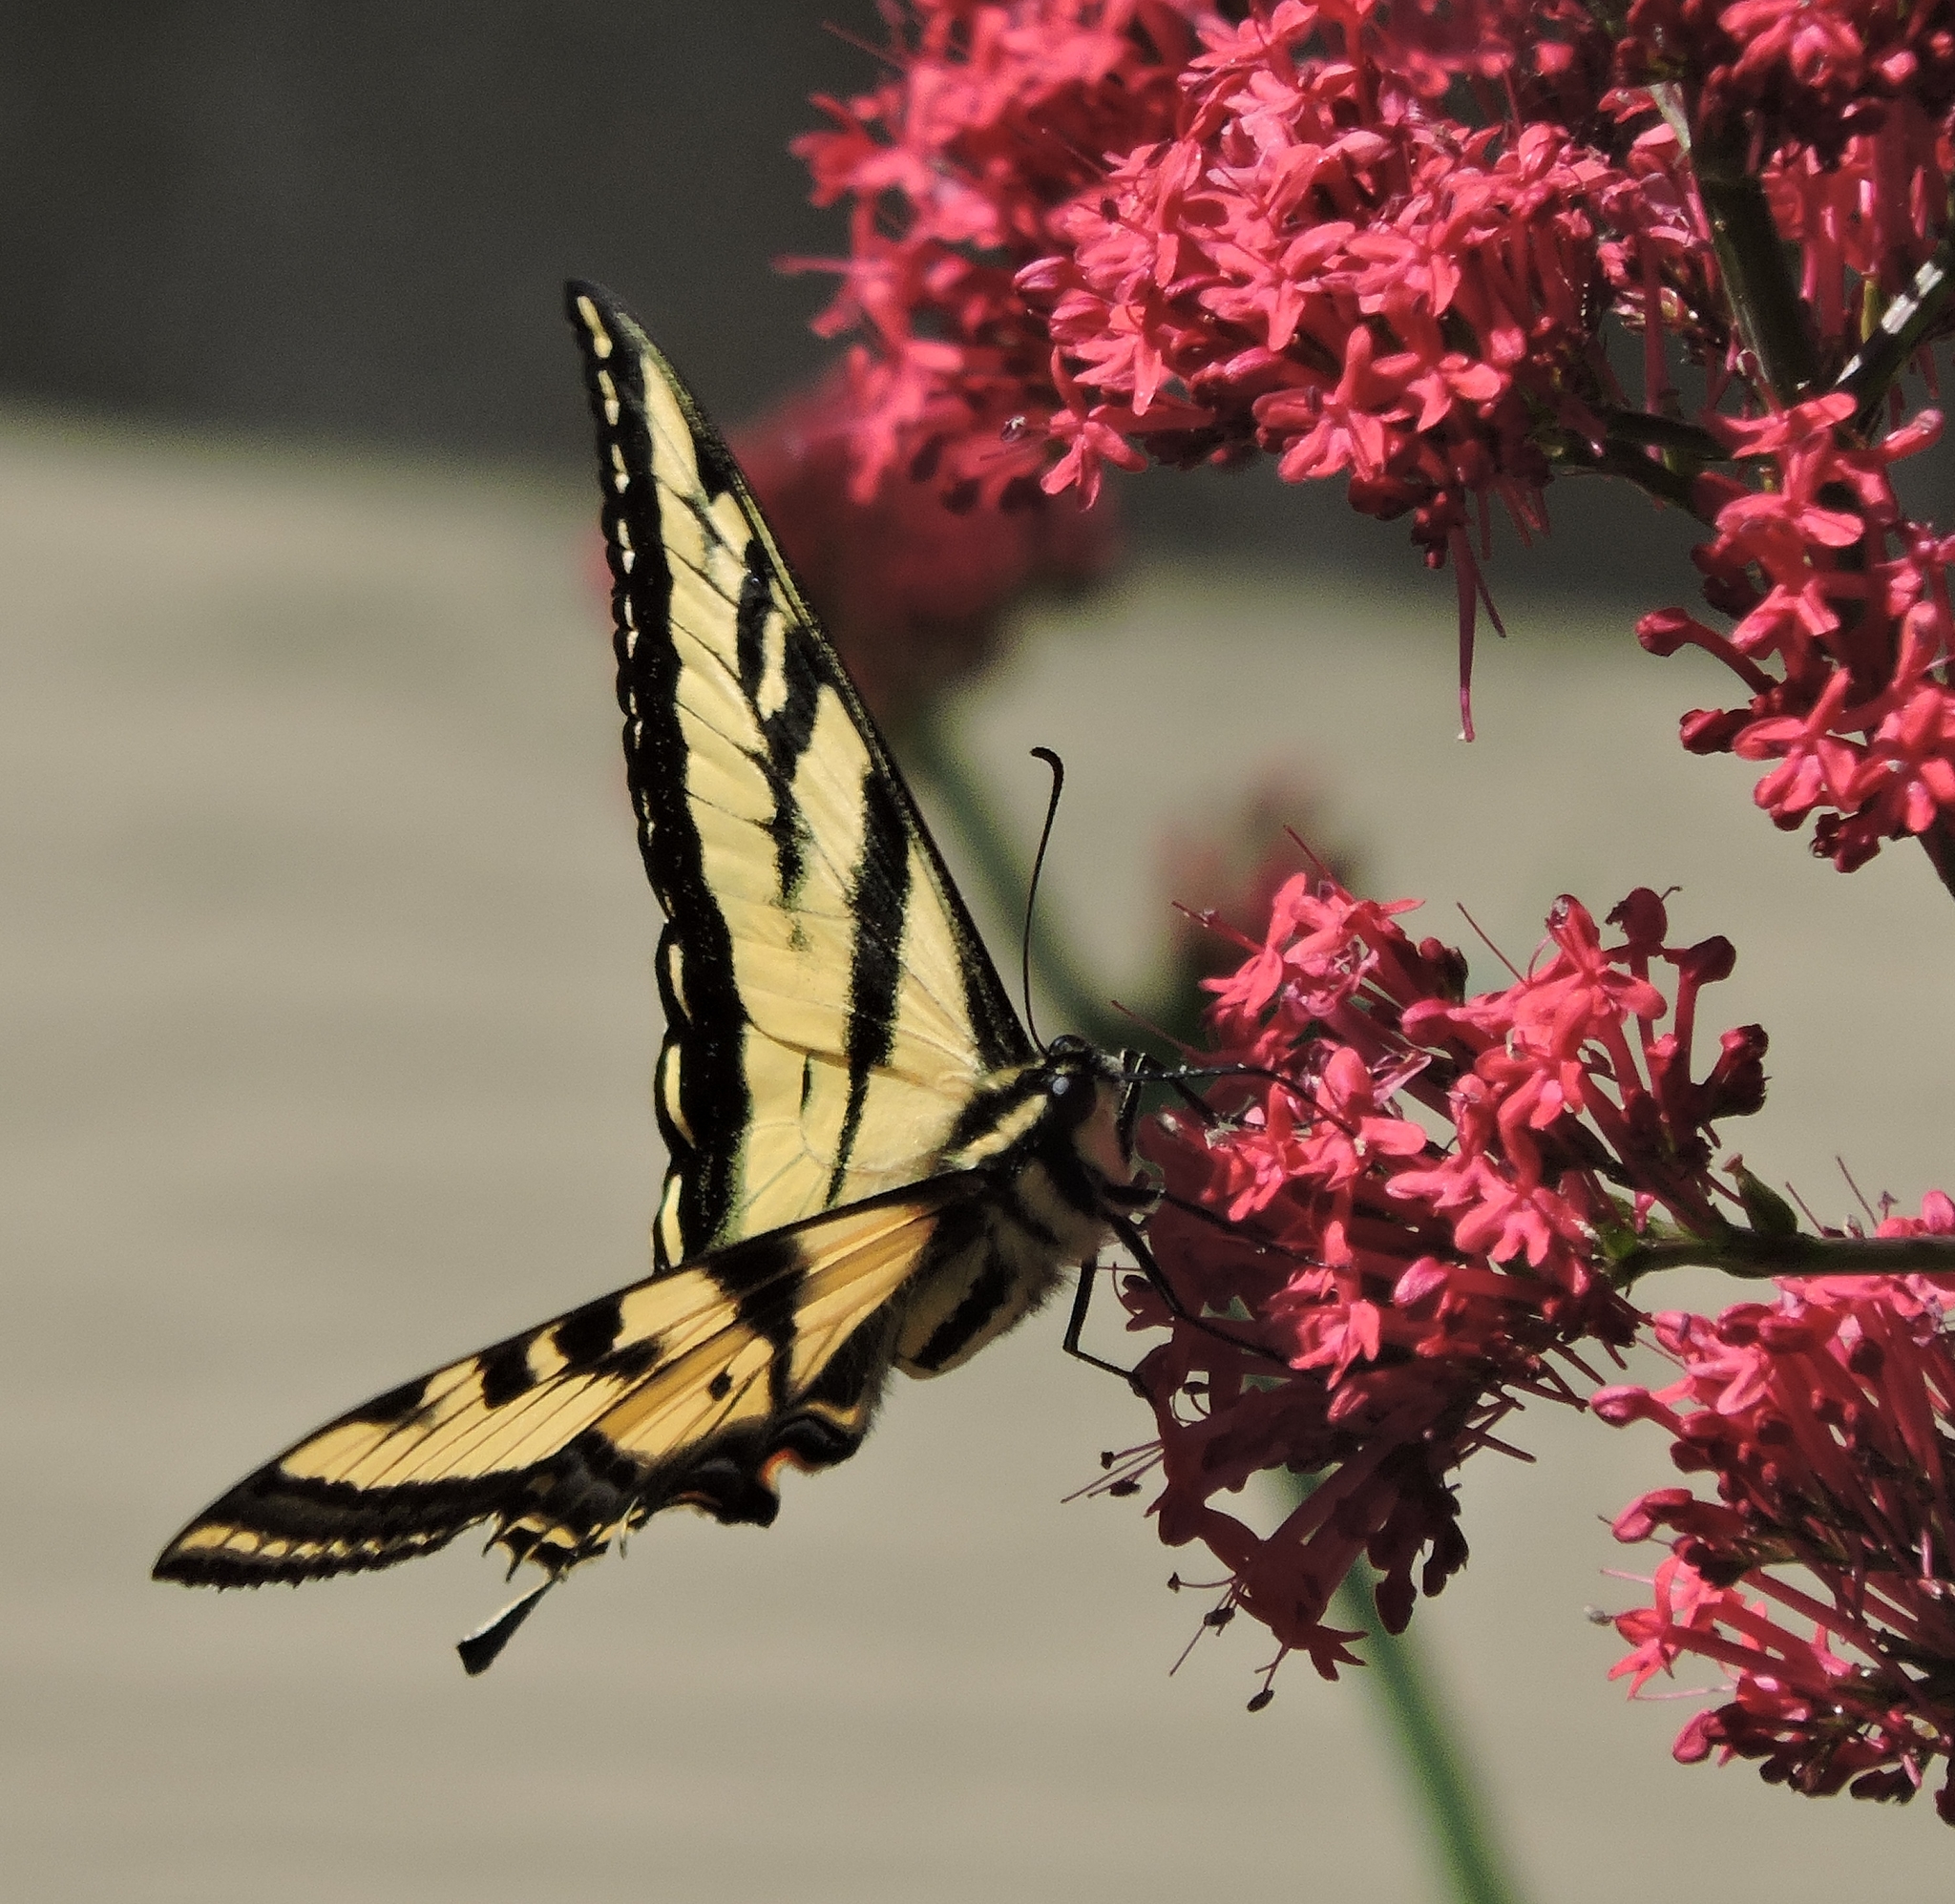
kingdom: Animalia
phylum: Arthropoda
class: Insecta
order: Lepidoptera
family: Papilionidae
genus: Papilio
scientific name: Papilio rutulus
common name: Western tiger swallowtail
